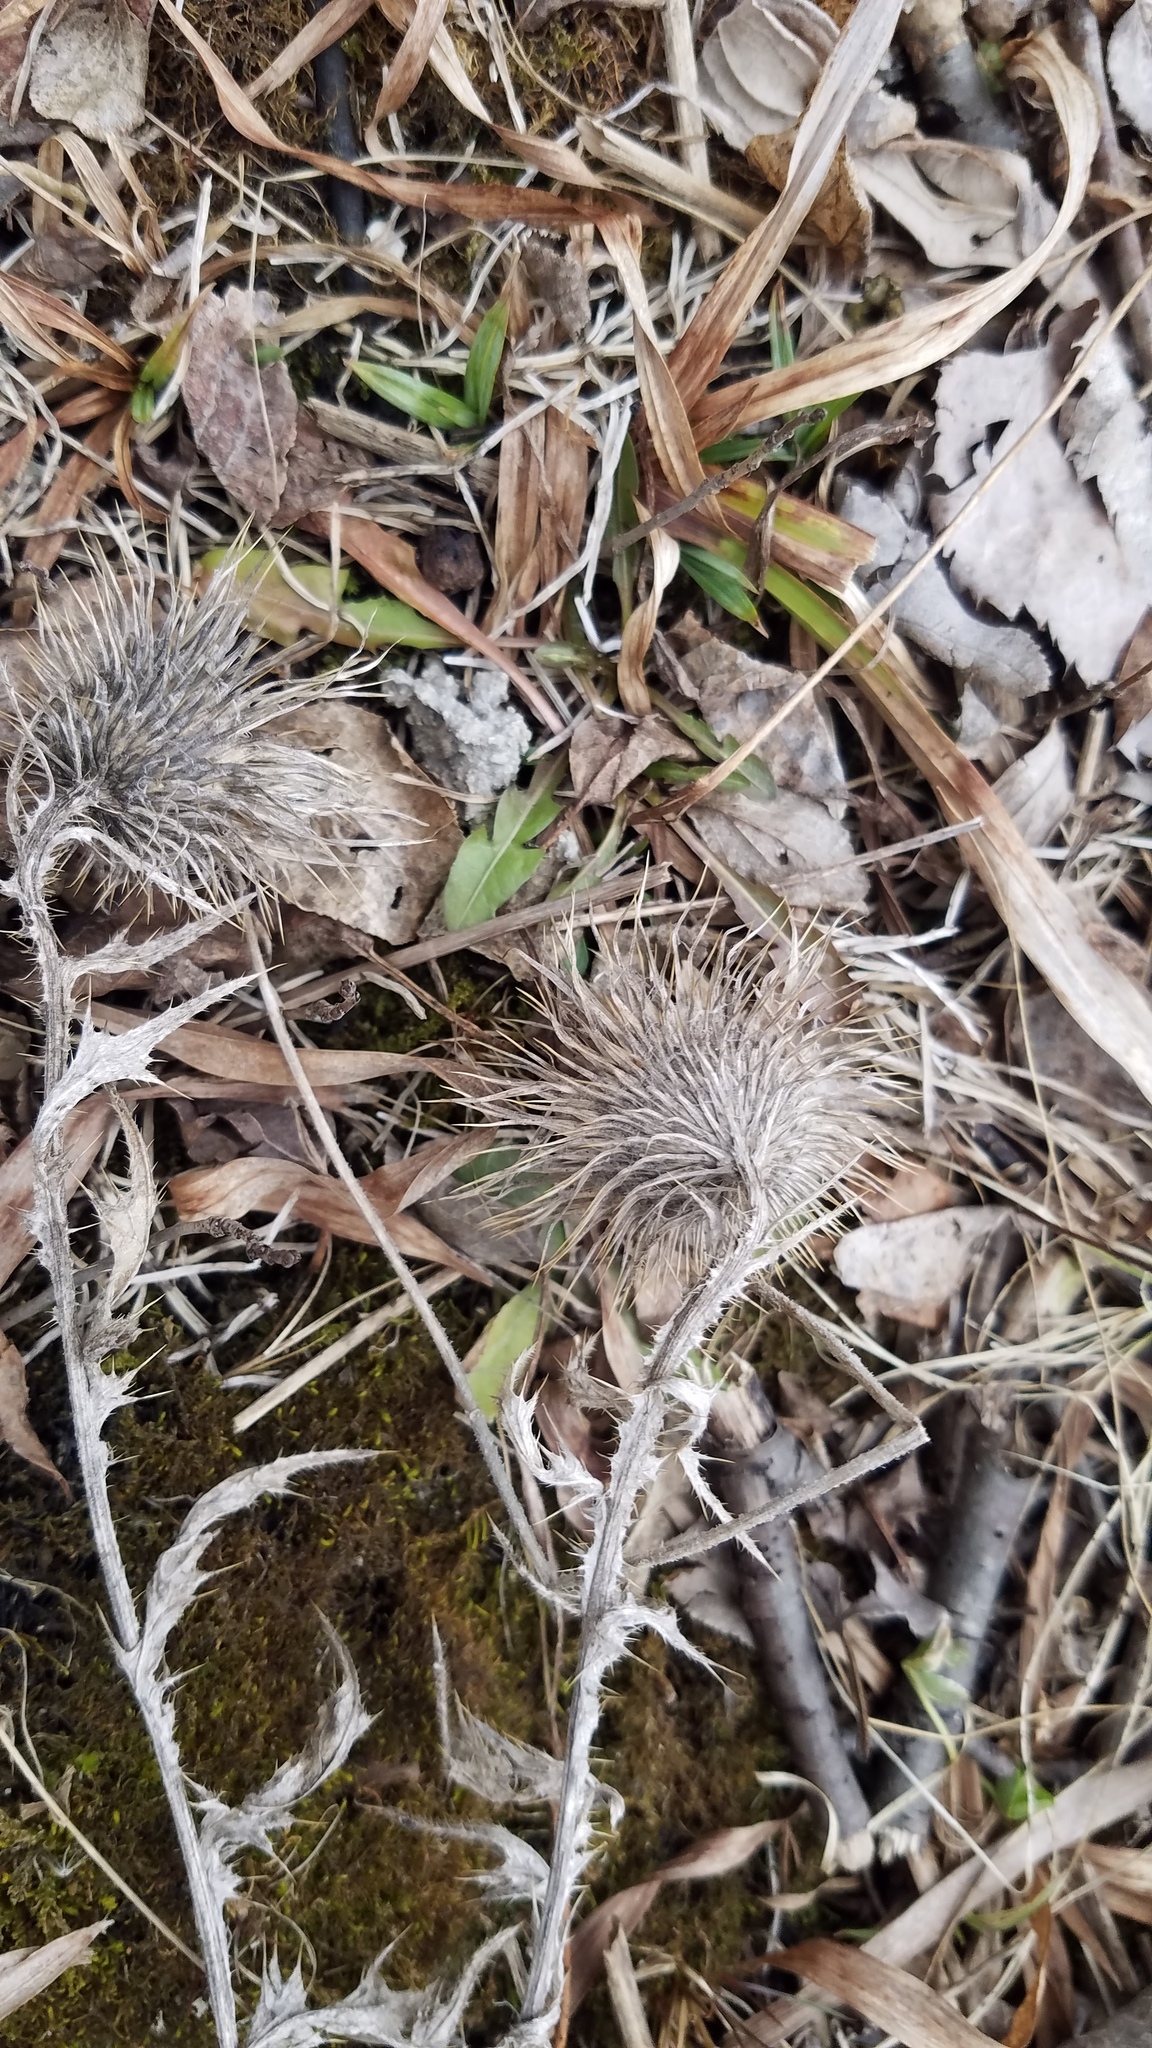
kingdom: Plantae
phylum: Tracheophyta
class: Magnoliopsida
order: Asterales
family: Asteraceae
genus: Cirsium
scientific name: Cirsium vulgare
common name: Bull thistle
